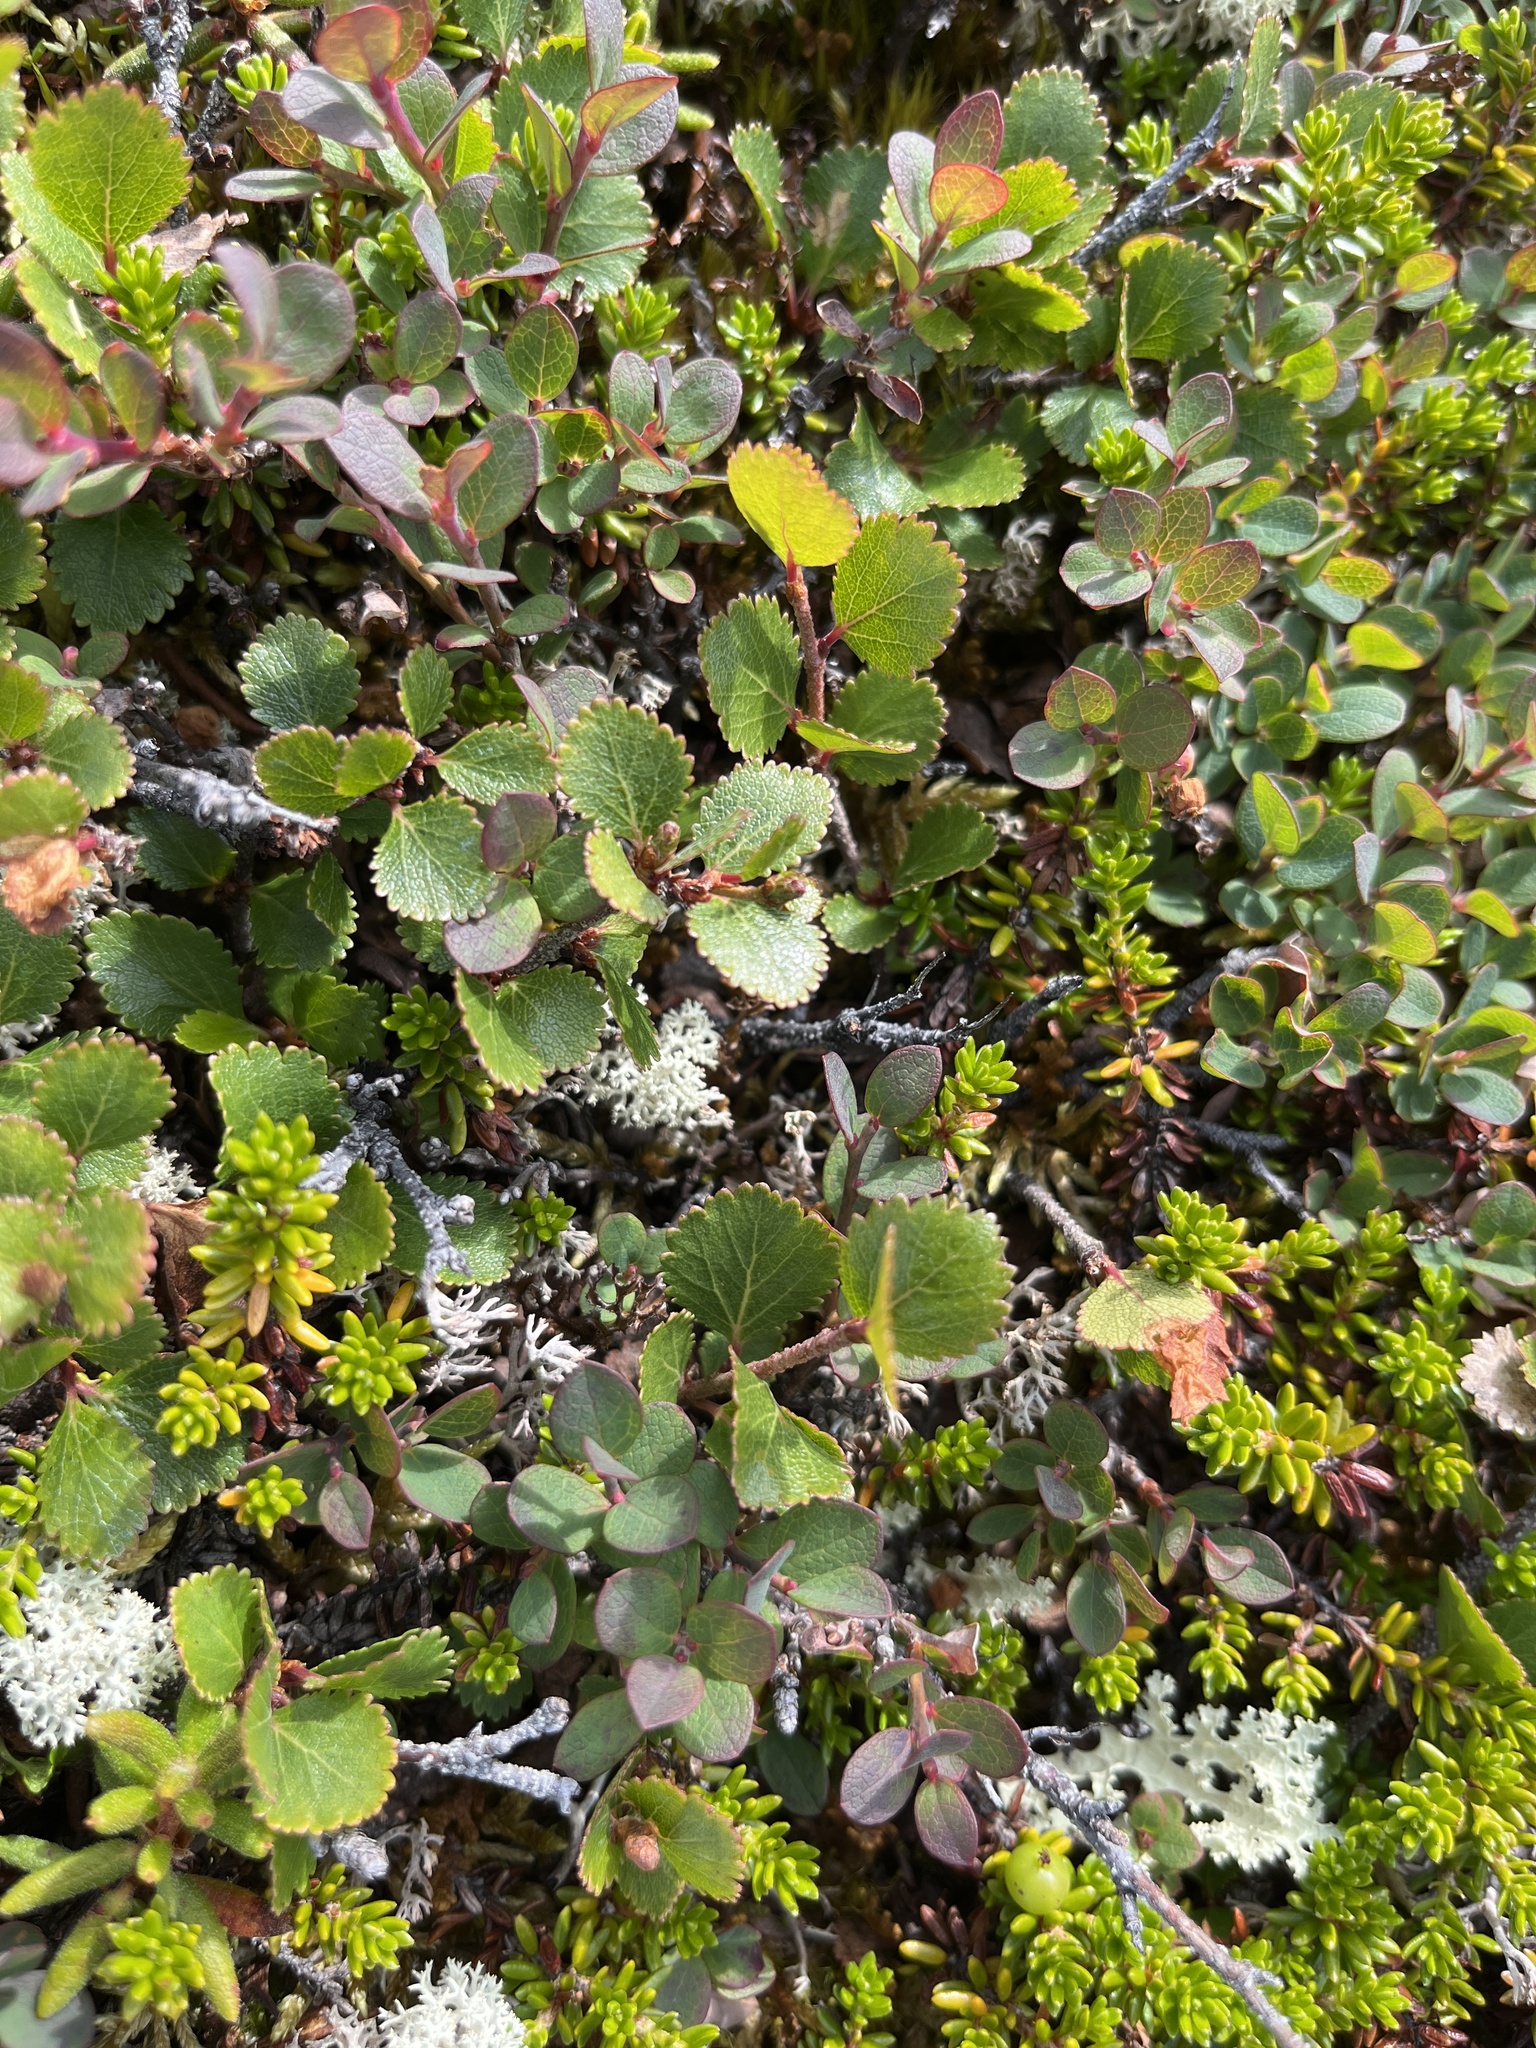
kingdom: Plantae
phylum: Tracheophyta
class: Magnoliopsida
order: Fagales
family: Betulaceae
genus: Betula
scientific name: Betula glandulosa
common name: Dwarf birch
